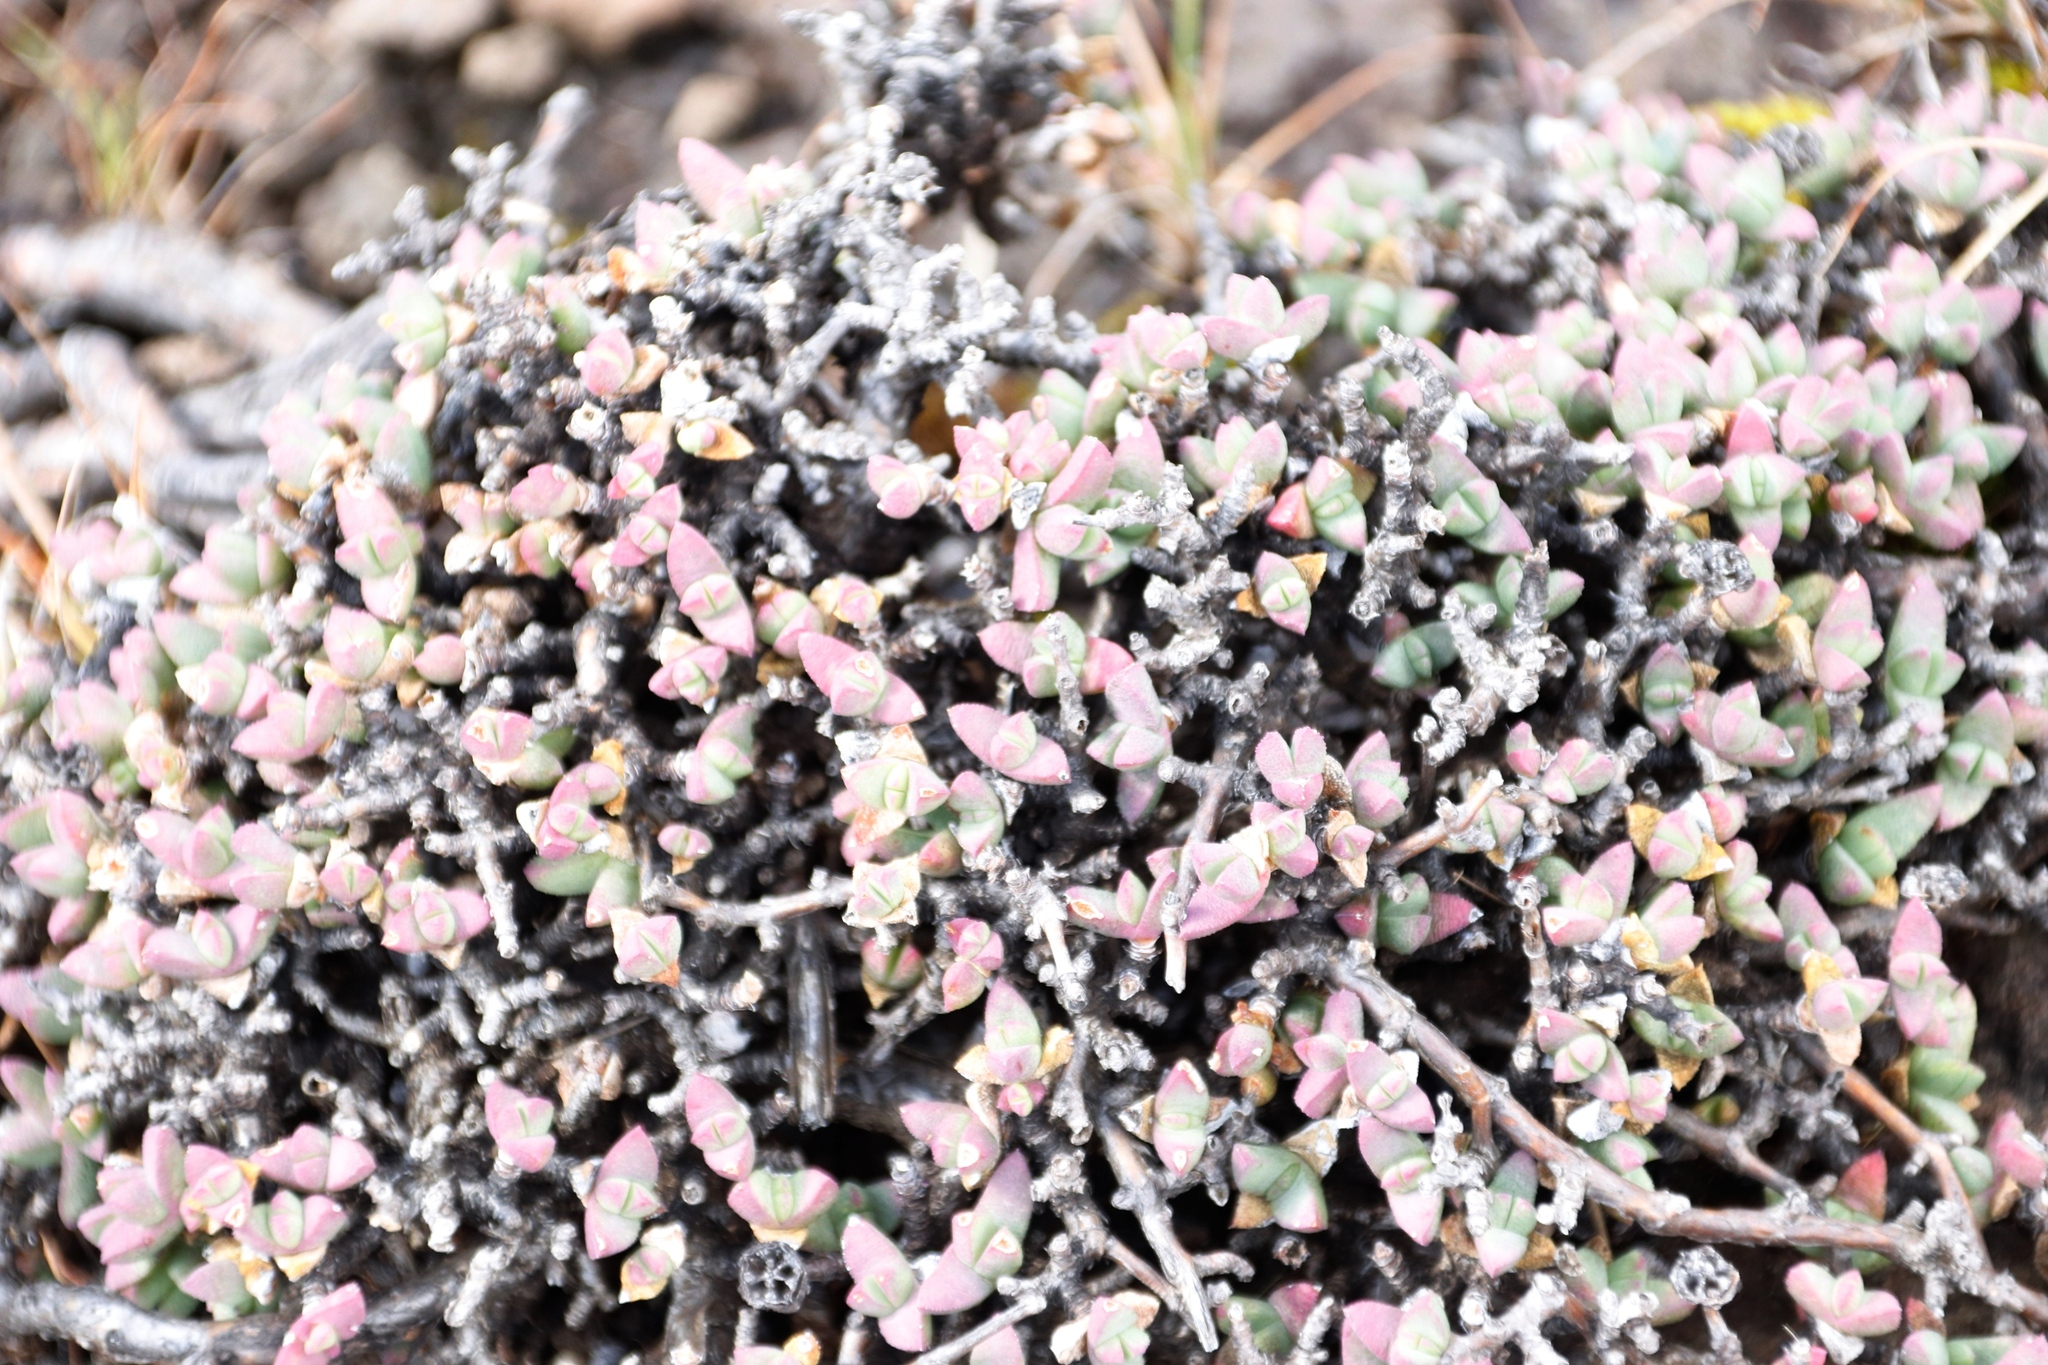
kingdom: Plantae
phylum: Tracheophyta
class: Magnoliopsida
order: Caryophyllales
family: Aizoaceae
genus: Ruschia
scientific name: Ruschia putterillii
